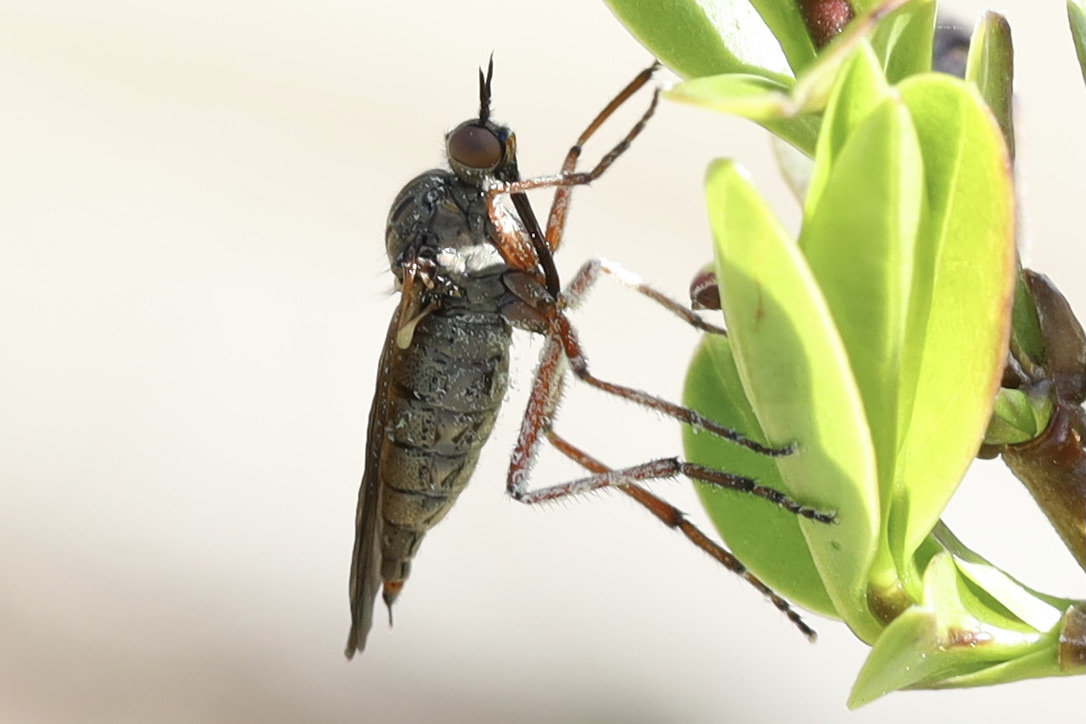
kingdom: Animalia
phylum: Arthropoda
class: Insecta
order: Diptera
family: Empididae
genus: Empis
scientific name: Empis barbatoides
